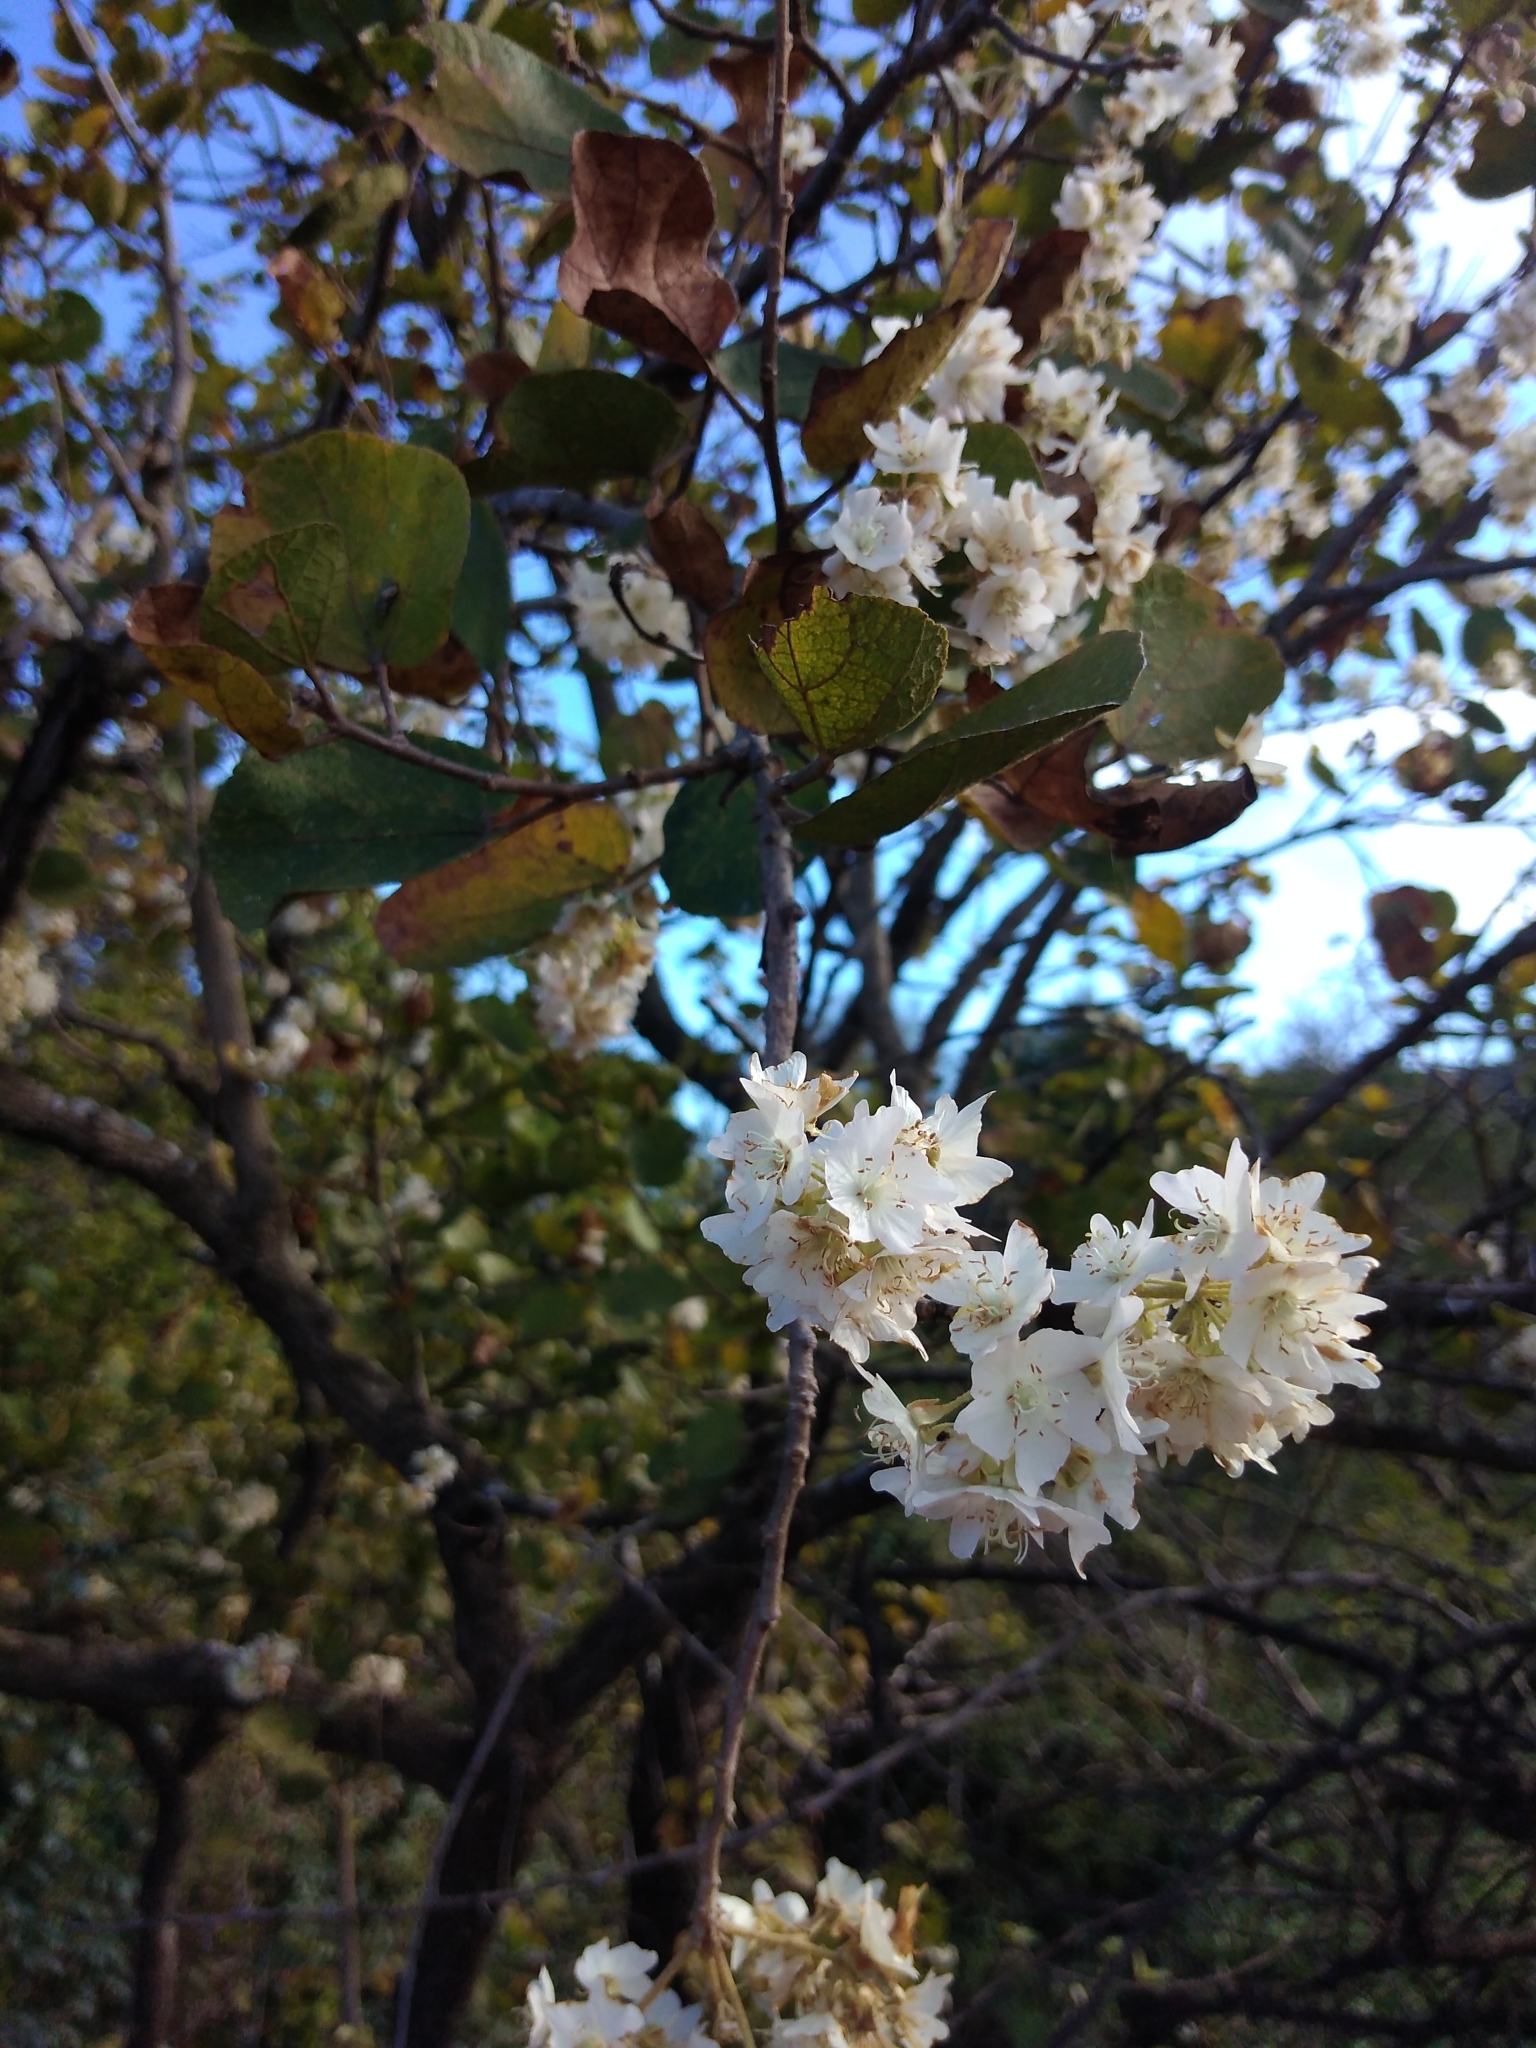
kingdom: Plantae
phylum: Tracheophyta
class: Magnoliopsida
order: Malvales
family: Malvaceae
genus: Dombeya
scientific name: Dombeya rotundifolia
